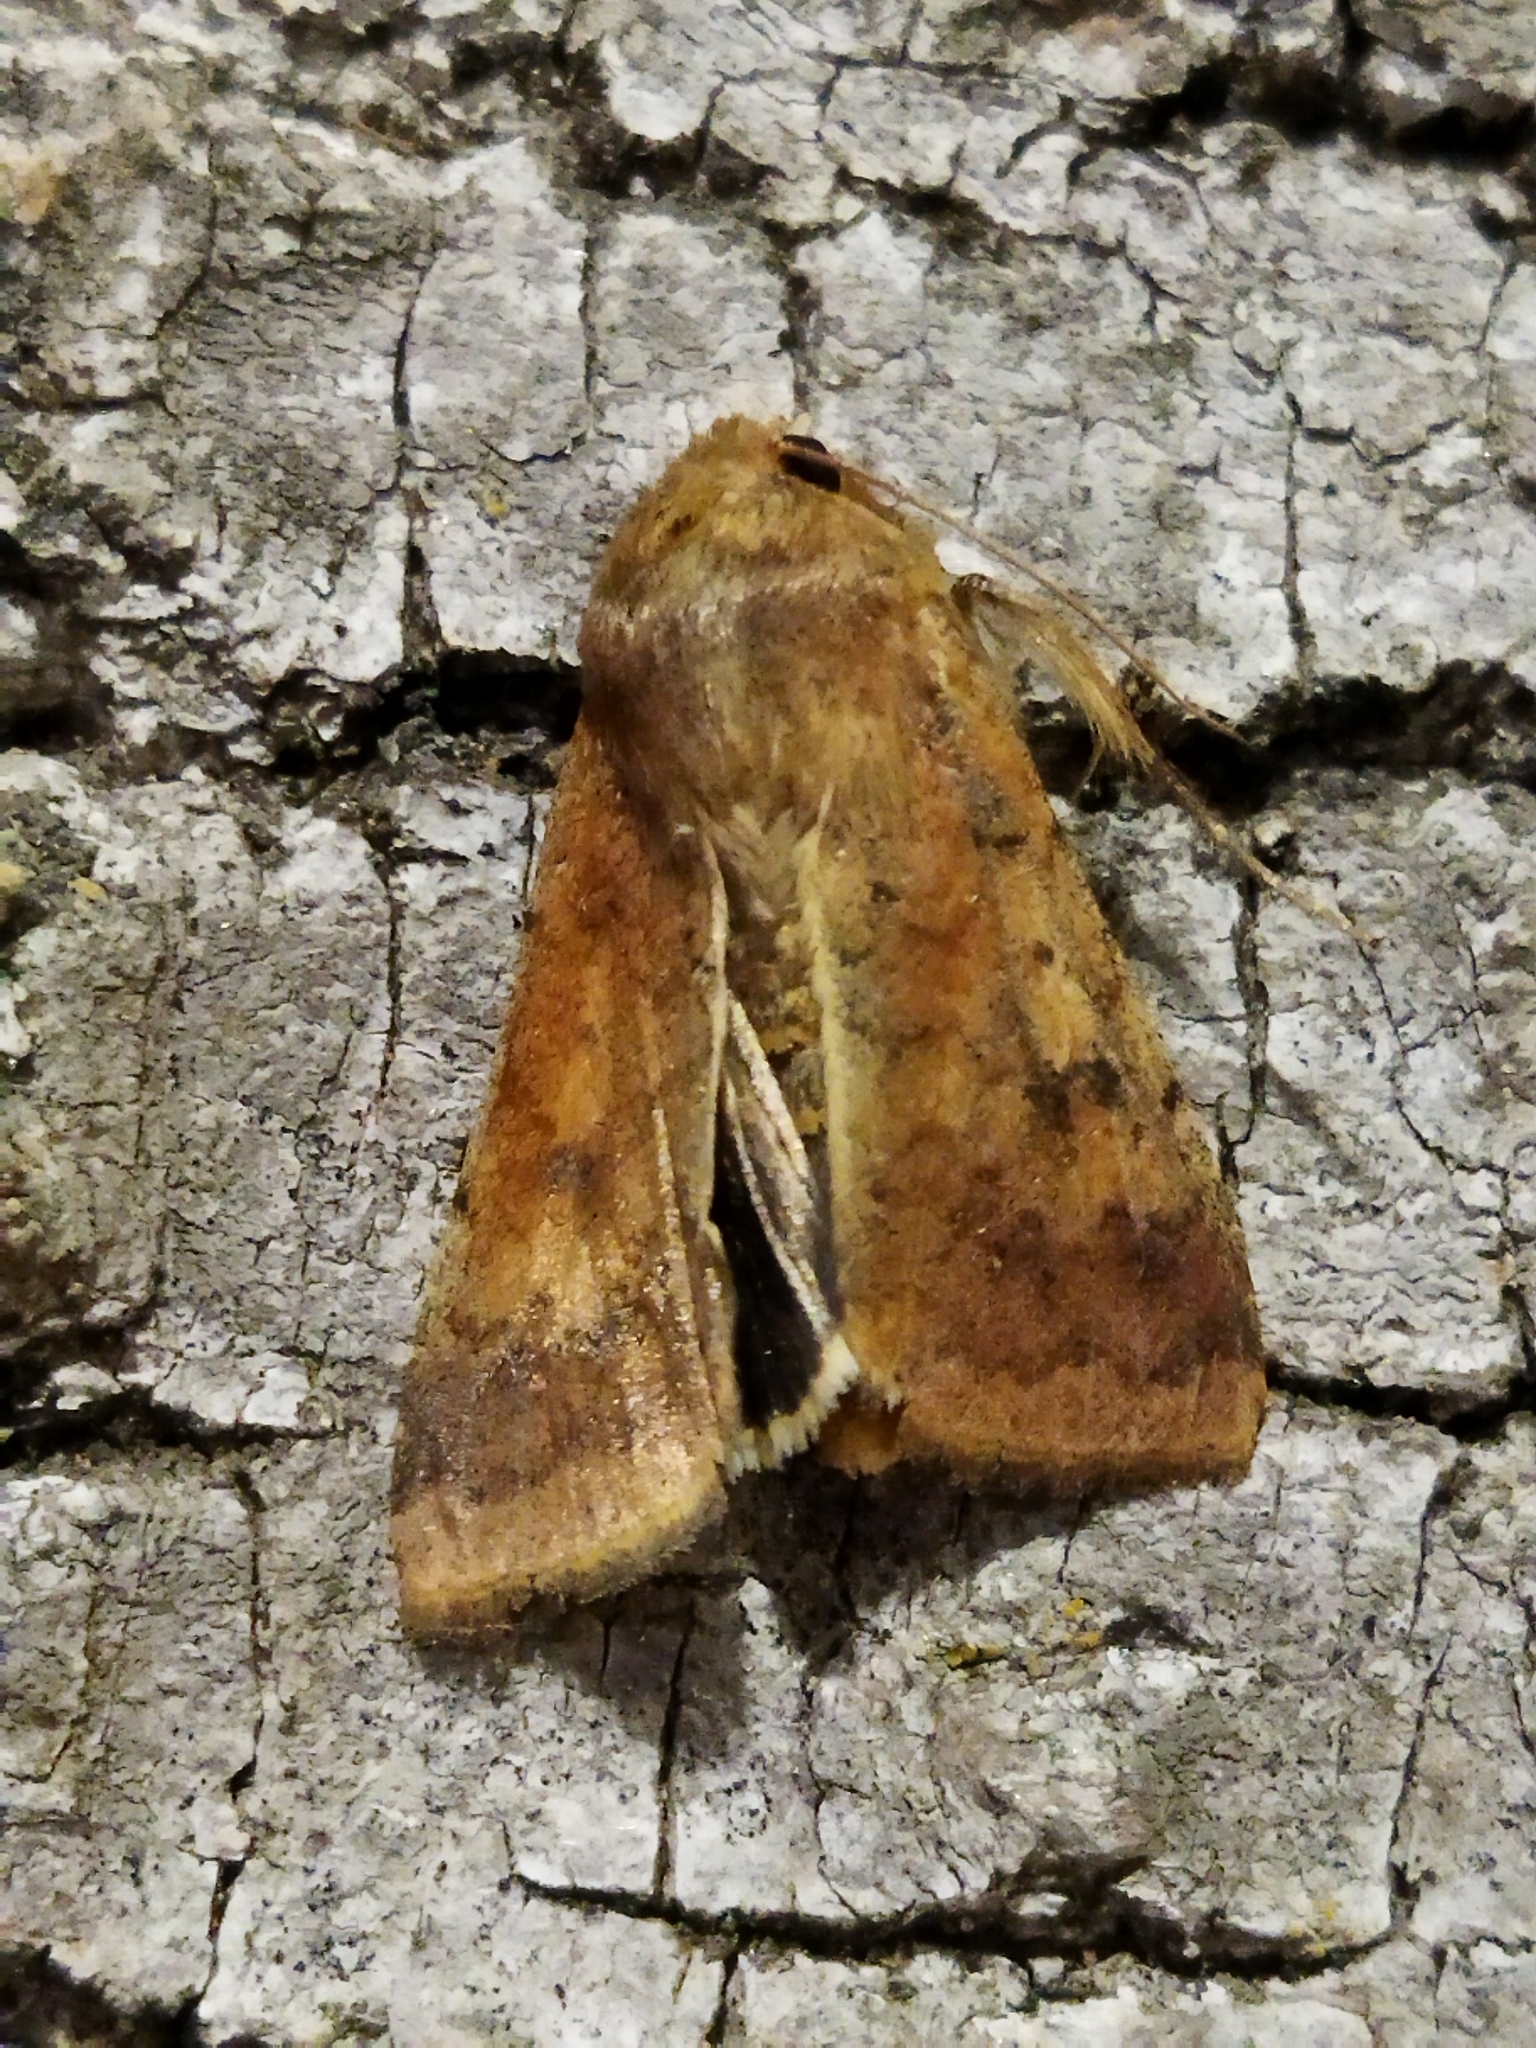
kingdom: Animalia
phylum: Arthropoda
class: Insecta
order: Lepidoptera
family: Noctuidae
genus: Helicoverpa
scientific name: Helicoverpa armigera
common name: Cotton bollworm
